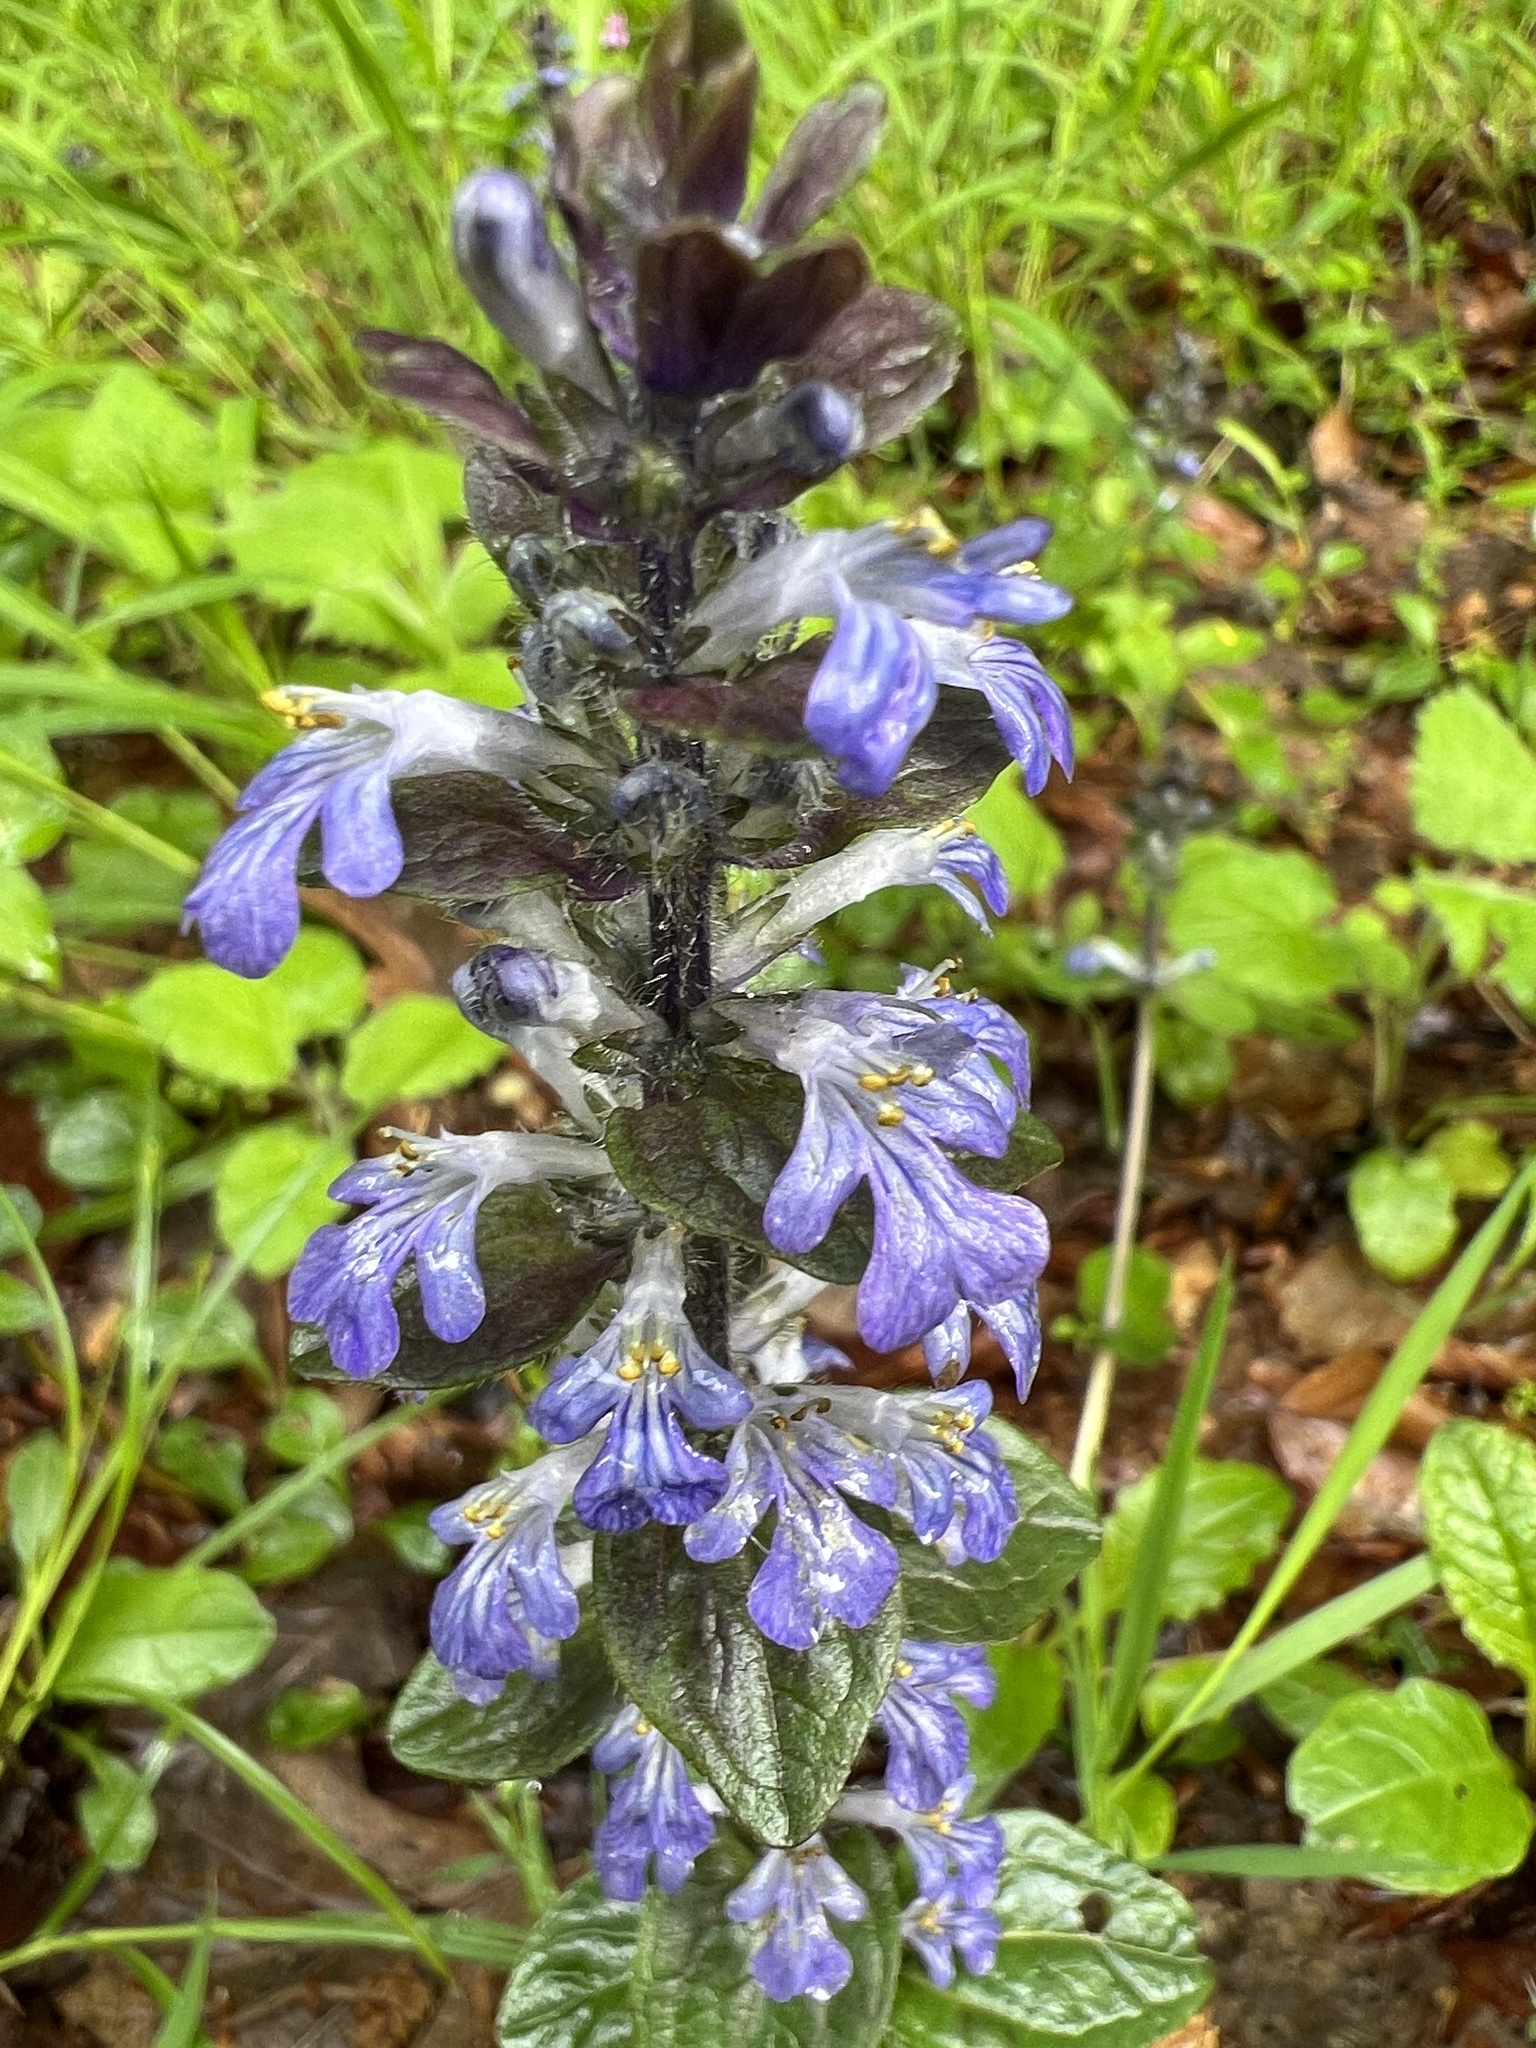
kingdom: Plantae
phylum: Tracheophyta
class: Magnoliopsida
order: Lamiales
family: Lamiaceae
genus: Ajuga
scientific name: Ajuga reptans
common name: Bugle
